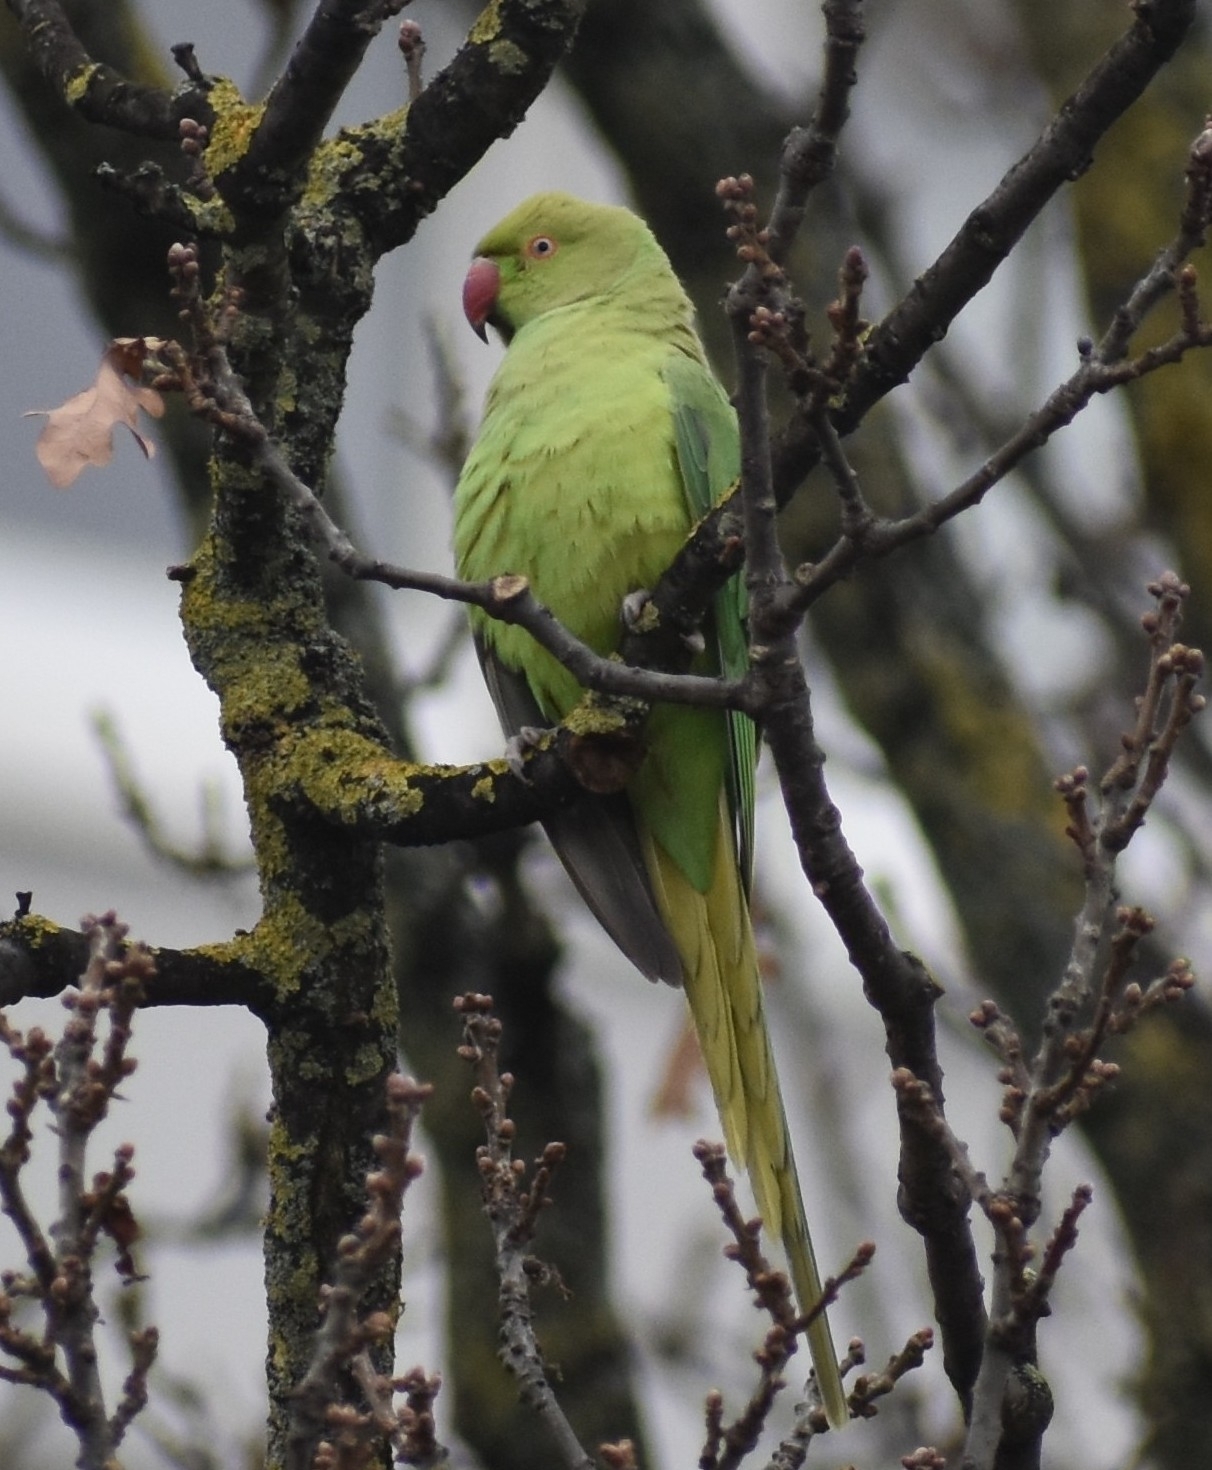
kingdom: Animalia
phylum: Chordata
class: Aves
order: Psittaciformes
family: Psittacidae
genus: Psittacula
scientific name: Psittacula krameri
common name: Rose-ringed parakeet
